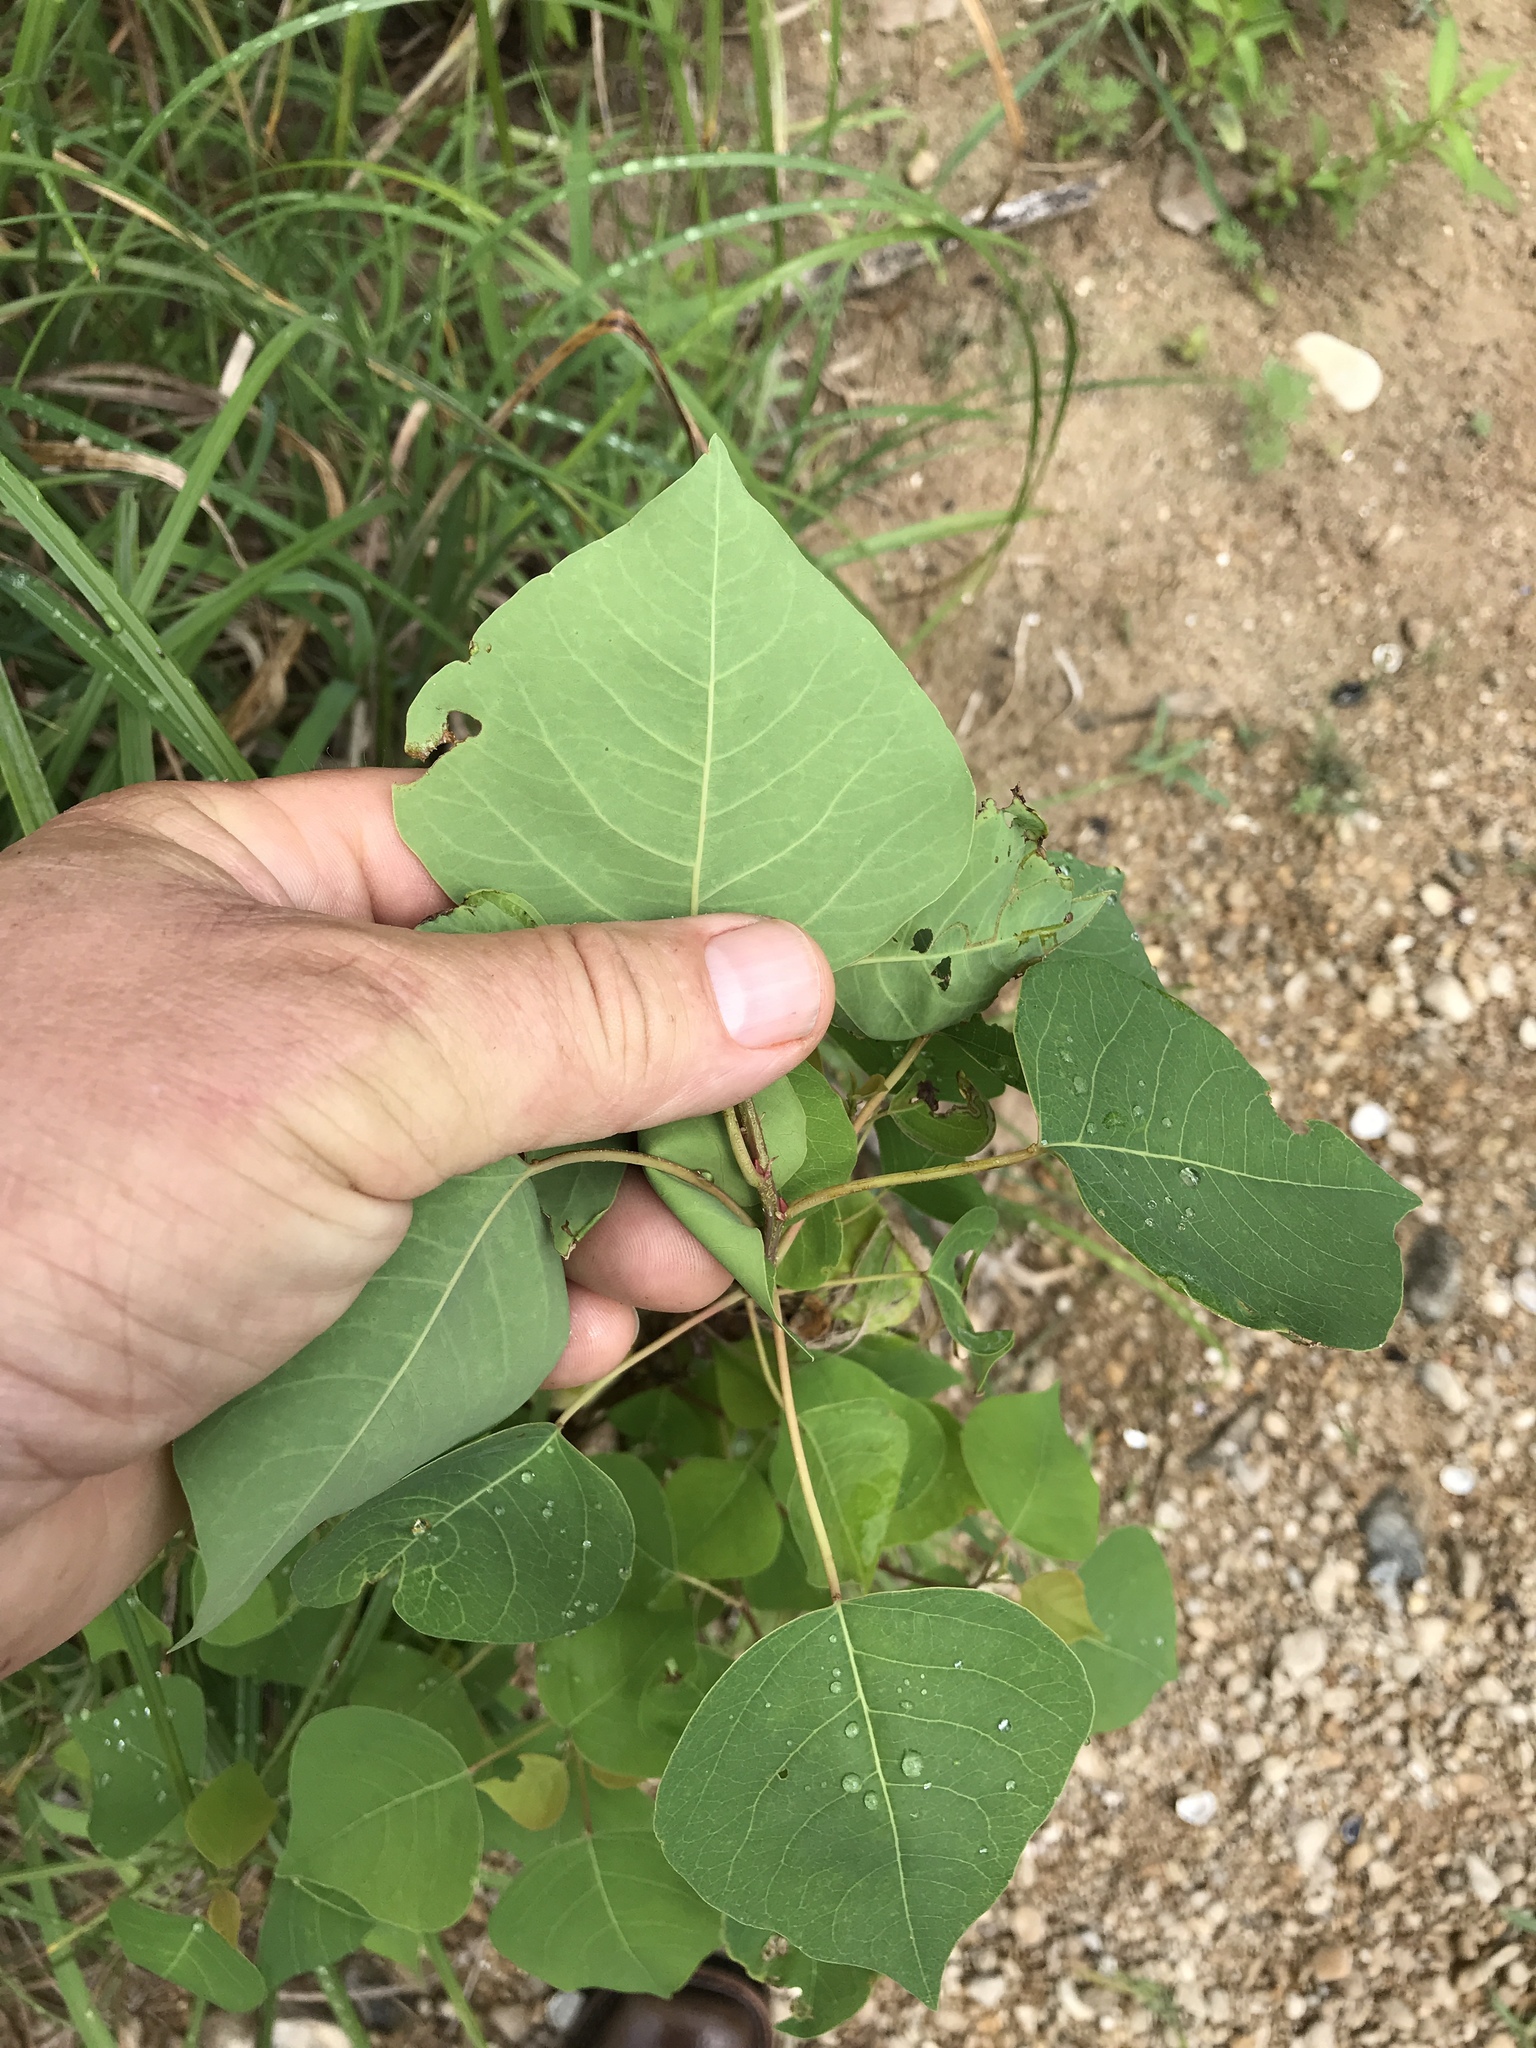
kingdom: Plantae
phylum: Tracheophyta
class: Magnoliopsida
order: Malpighiales
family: Euphorbiaceae
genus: Triadica
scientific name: Triadica sebifera
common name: Chinese tallow
